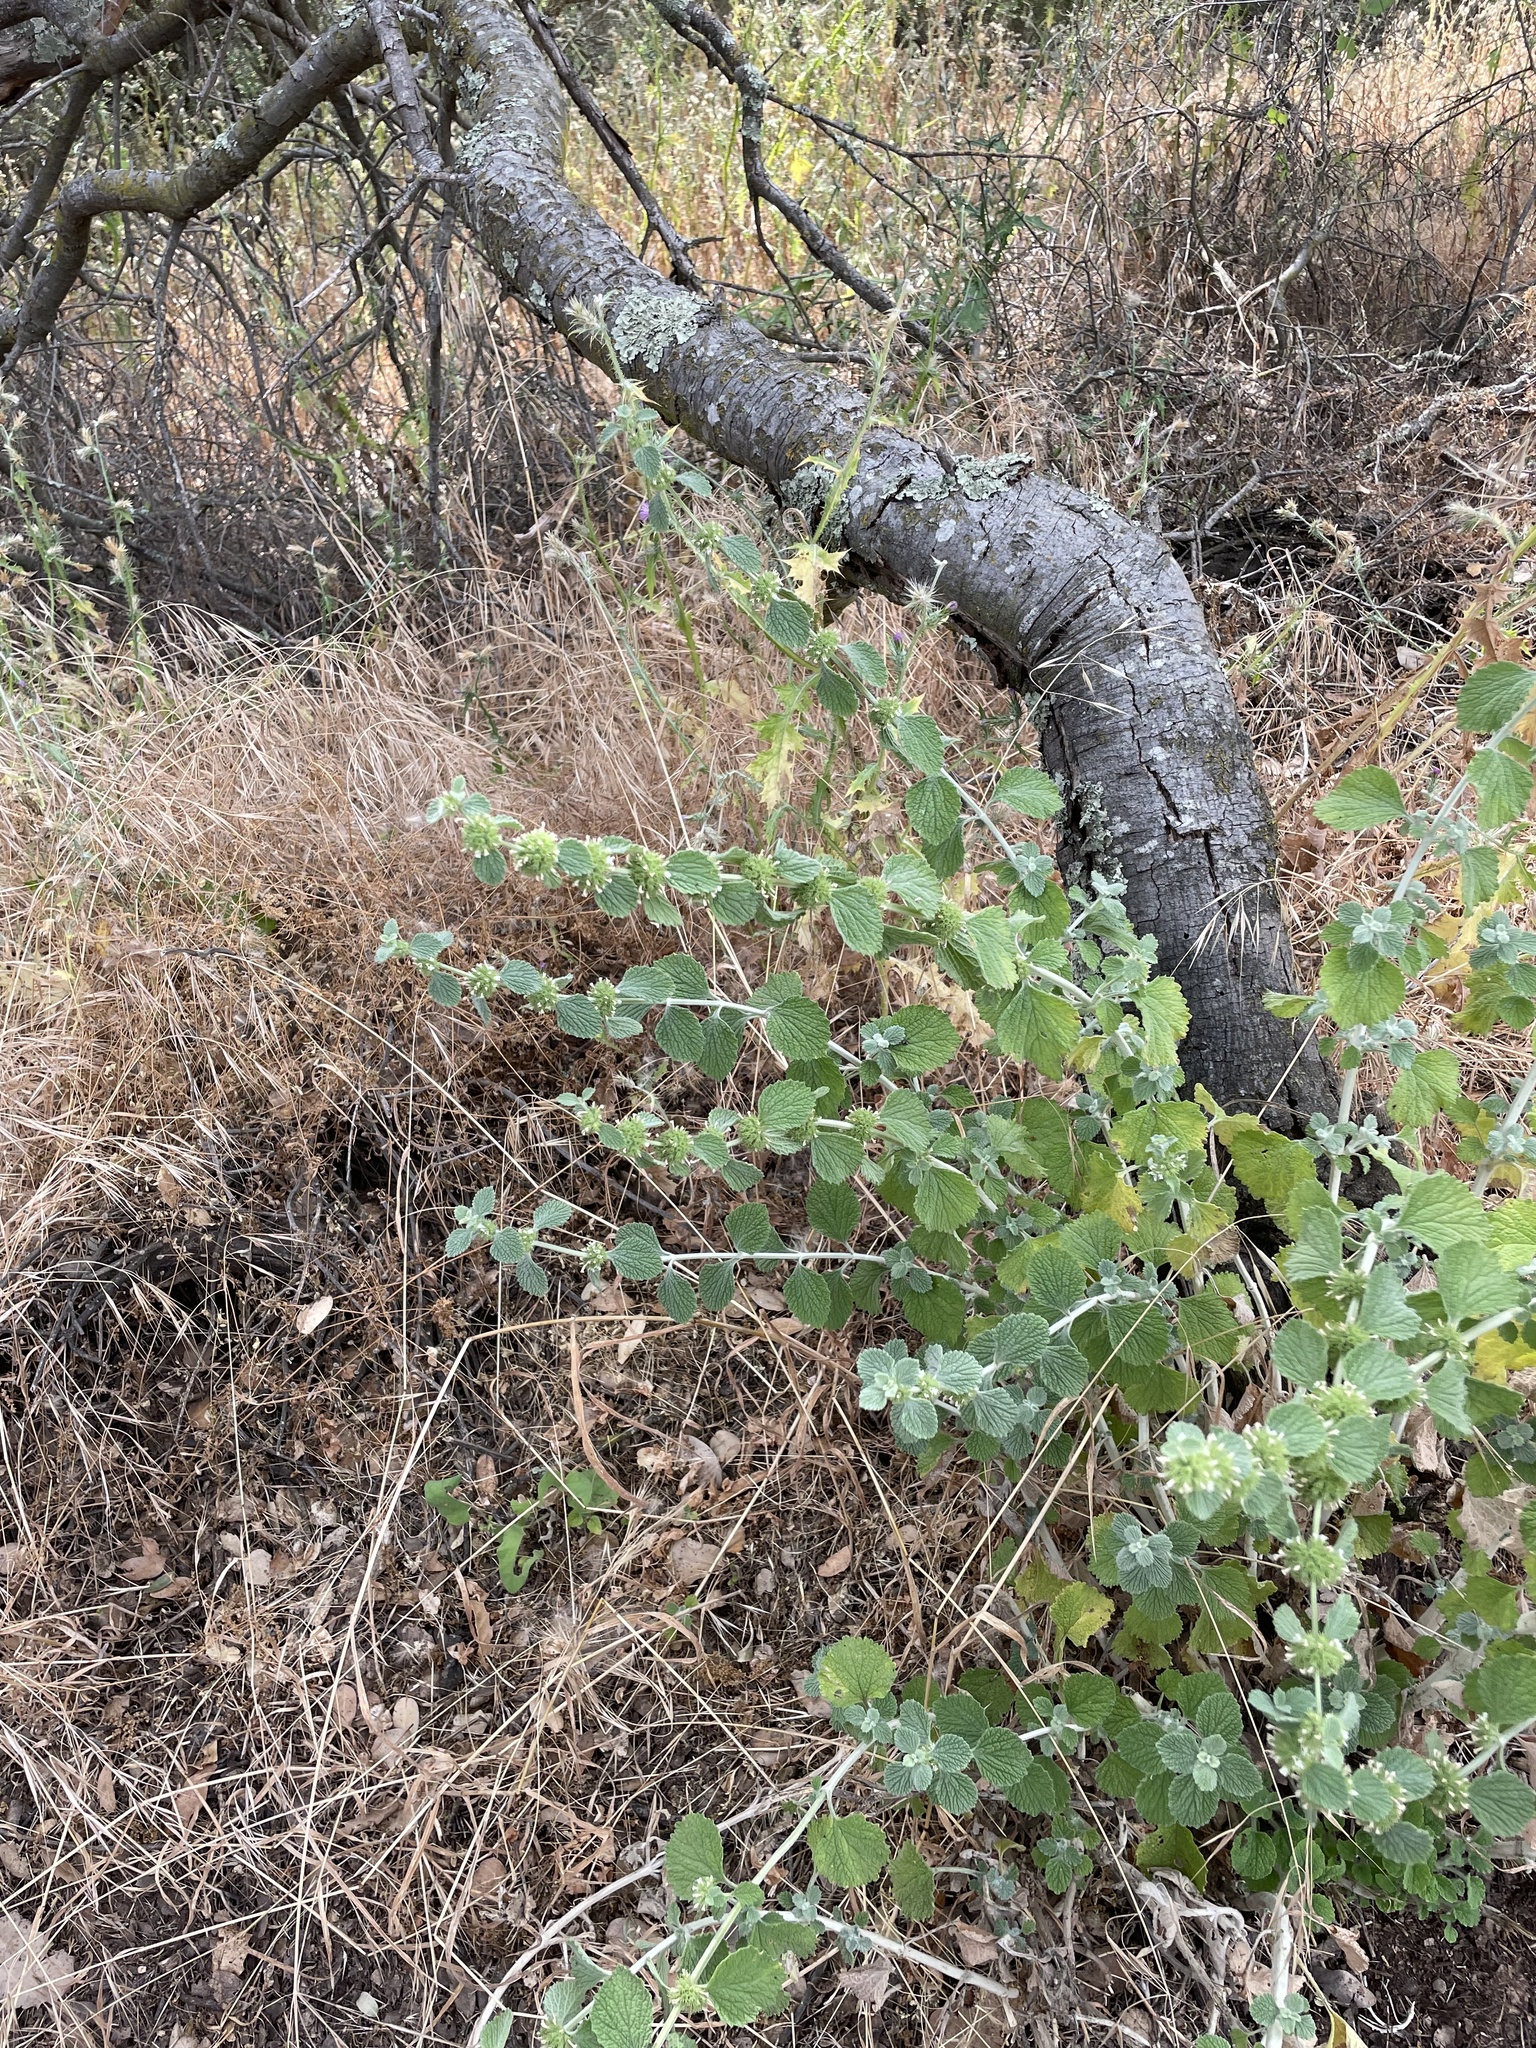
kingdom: Plantae
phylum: Tracheophyta
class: Magnoliopsida
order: Lamiales
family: Lamiaceae
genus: Marrubium
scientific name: Marrubium vulgare
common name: Horehound
